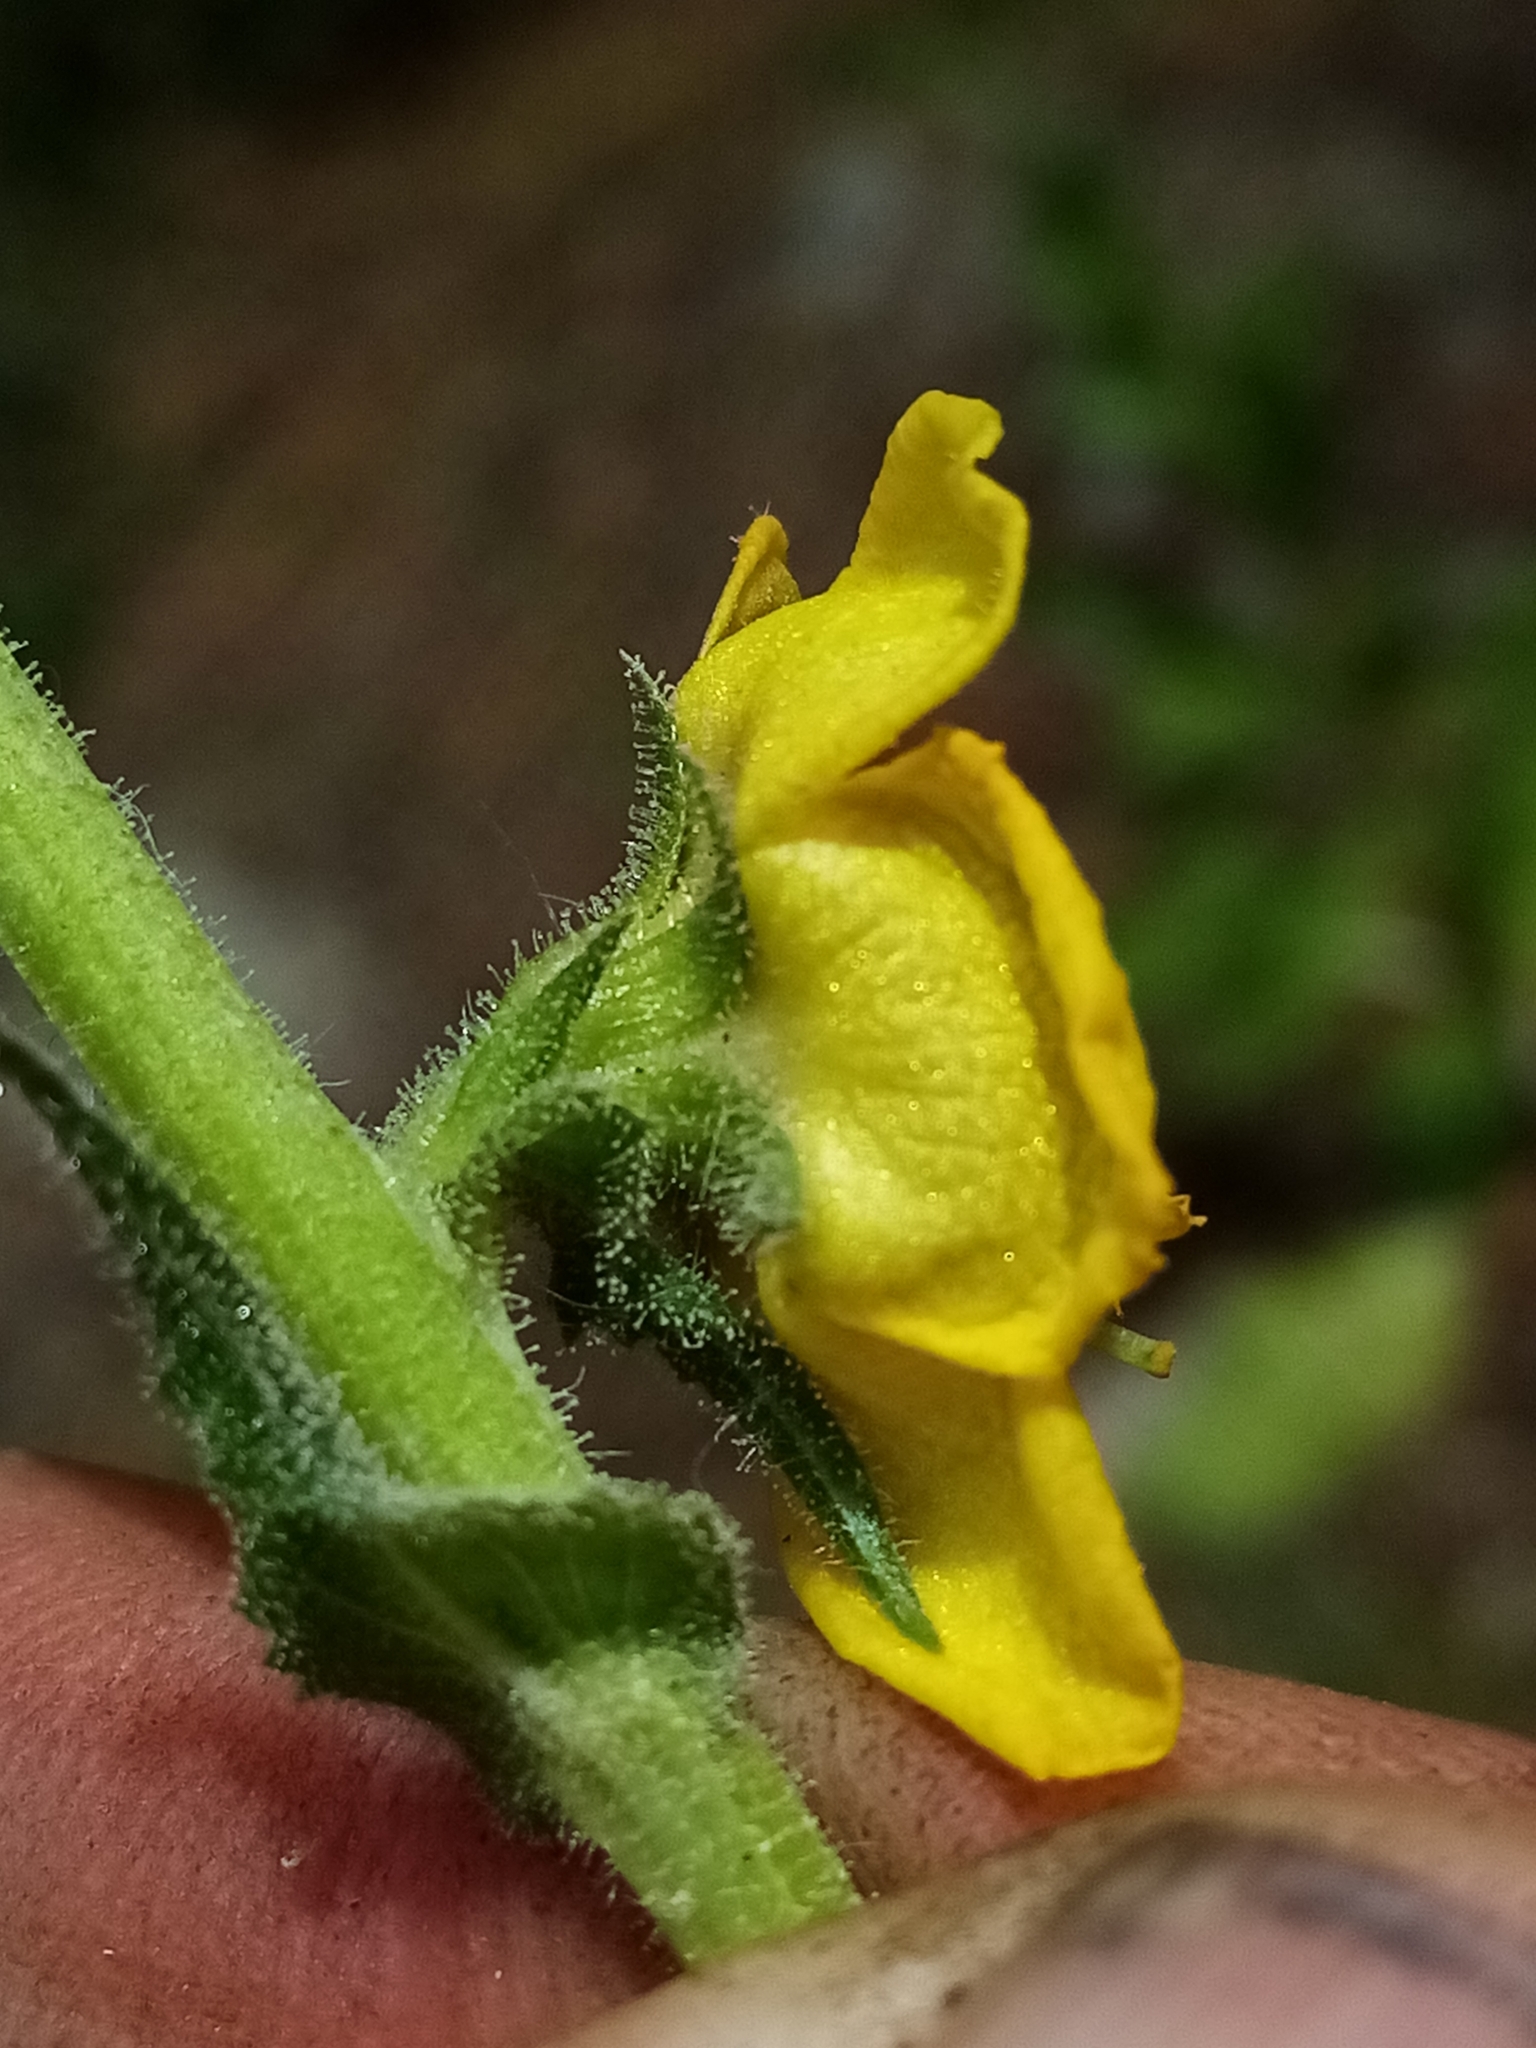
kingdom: Plantae
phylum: Tracheophyta
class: Magnoliopsida
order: Lamiales
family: Scrophulariaceae
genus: Verbascum
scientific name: Verbascum virgatum
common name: Twiggy mullein
